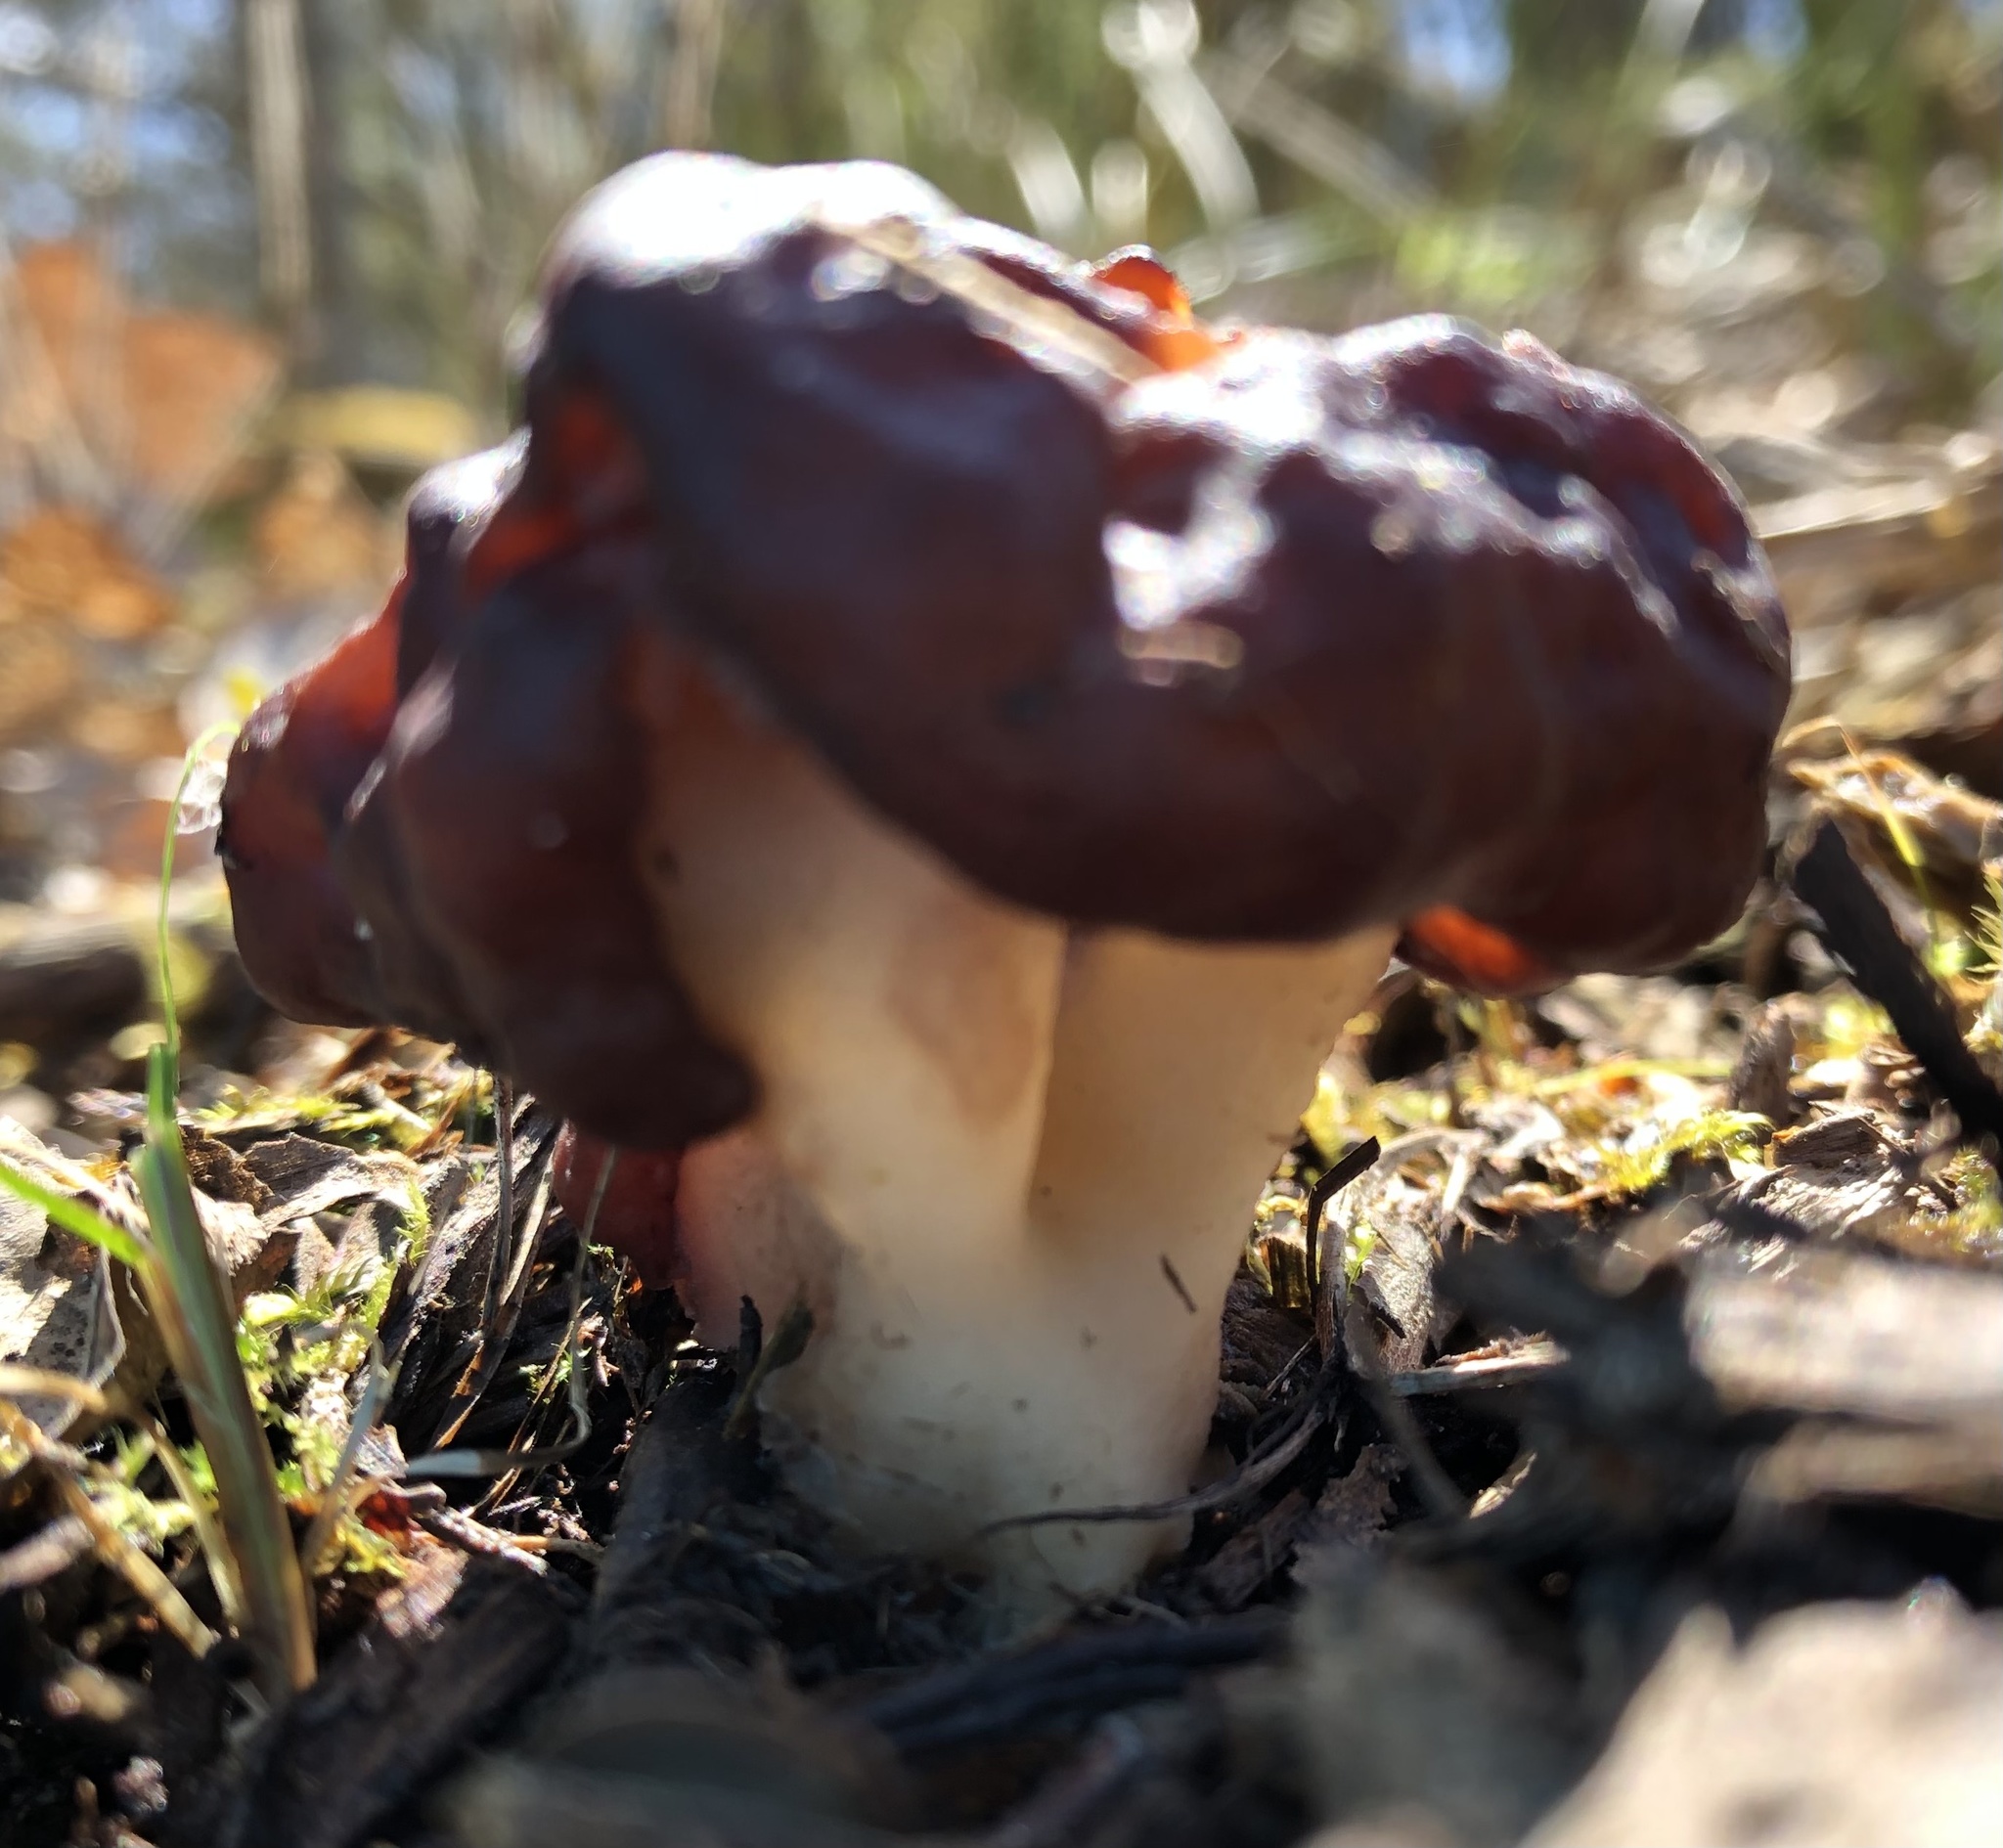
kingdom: Fungi
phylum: Ascomycota
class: Pezizomycetes
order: Pezizales
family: Discinaceae
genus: Gyromitra
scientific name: Gyromitra esculenta
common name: False morel
